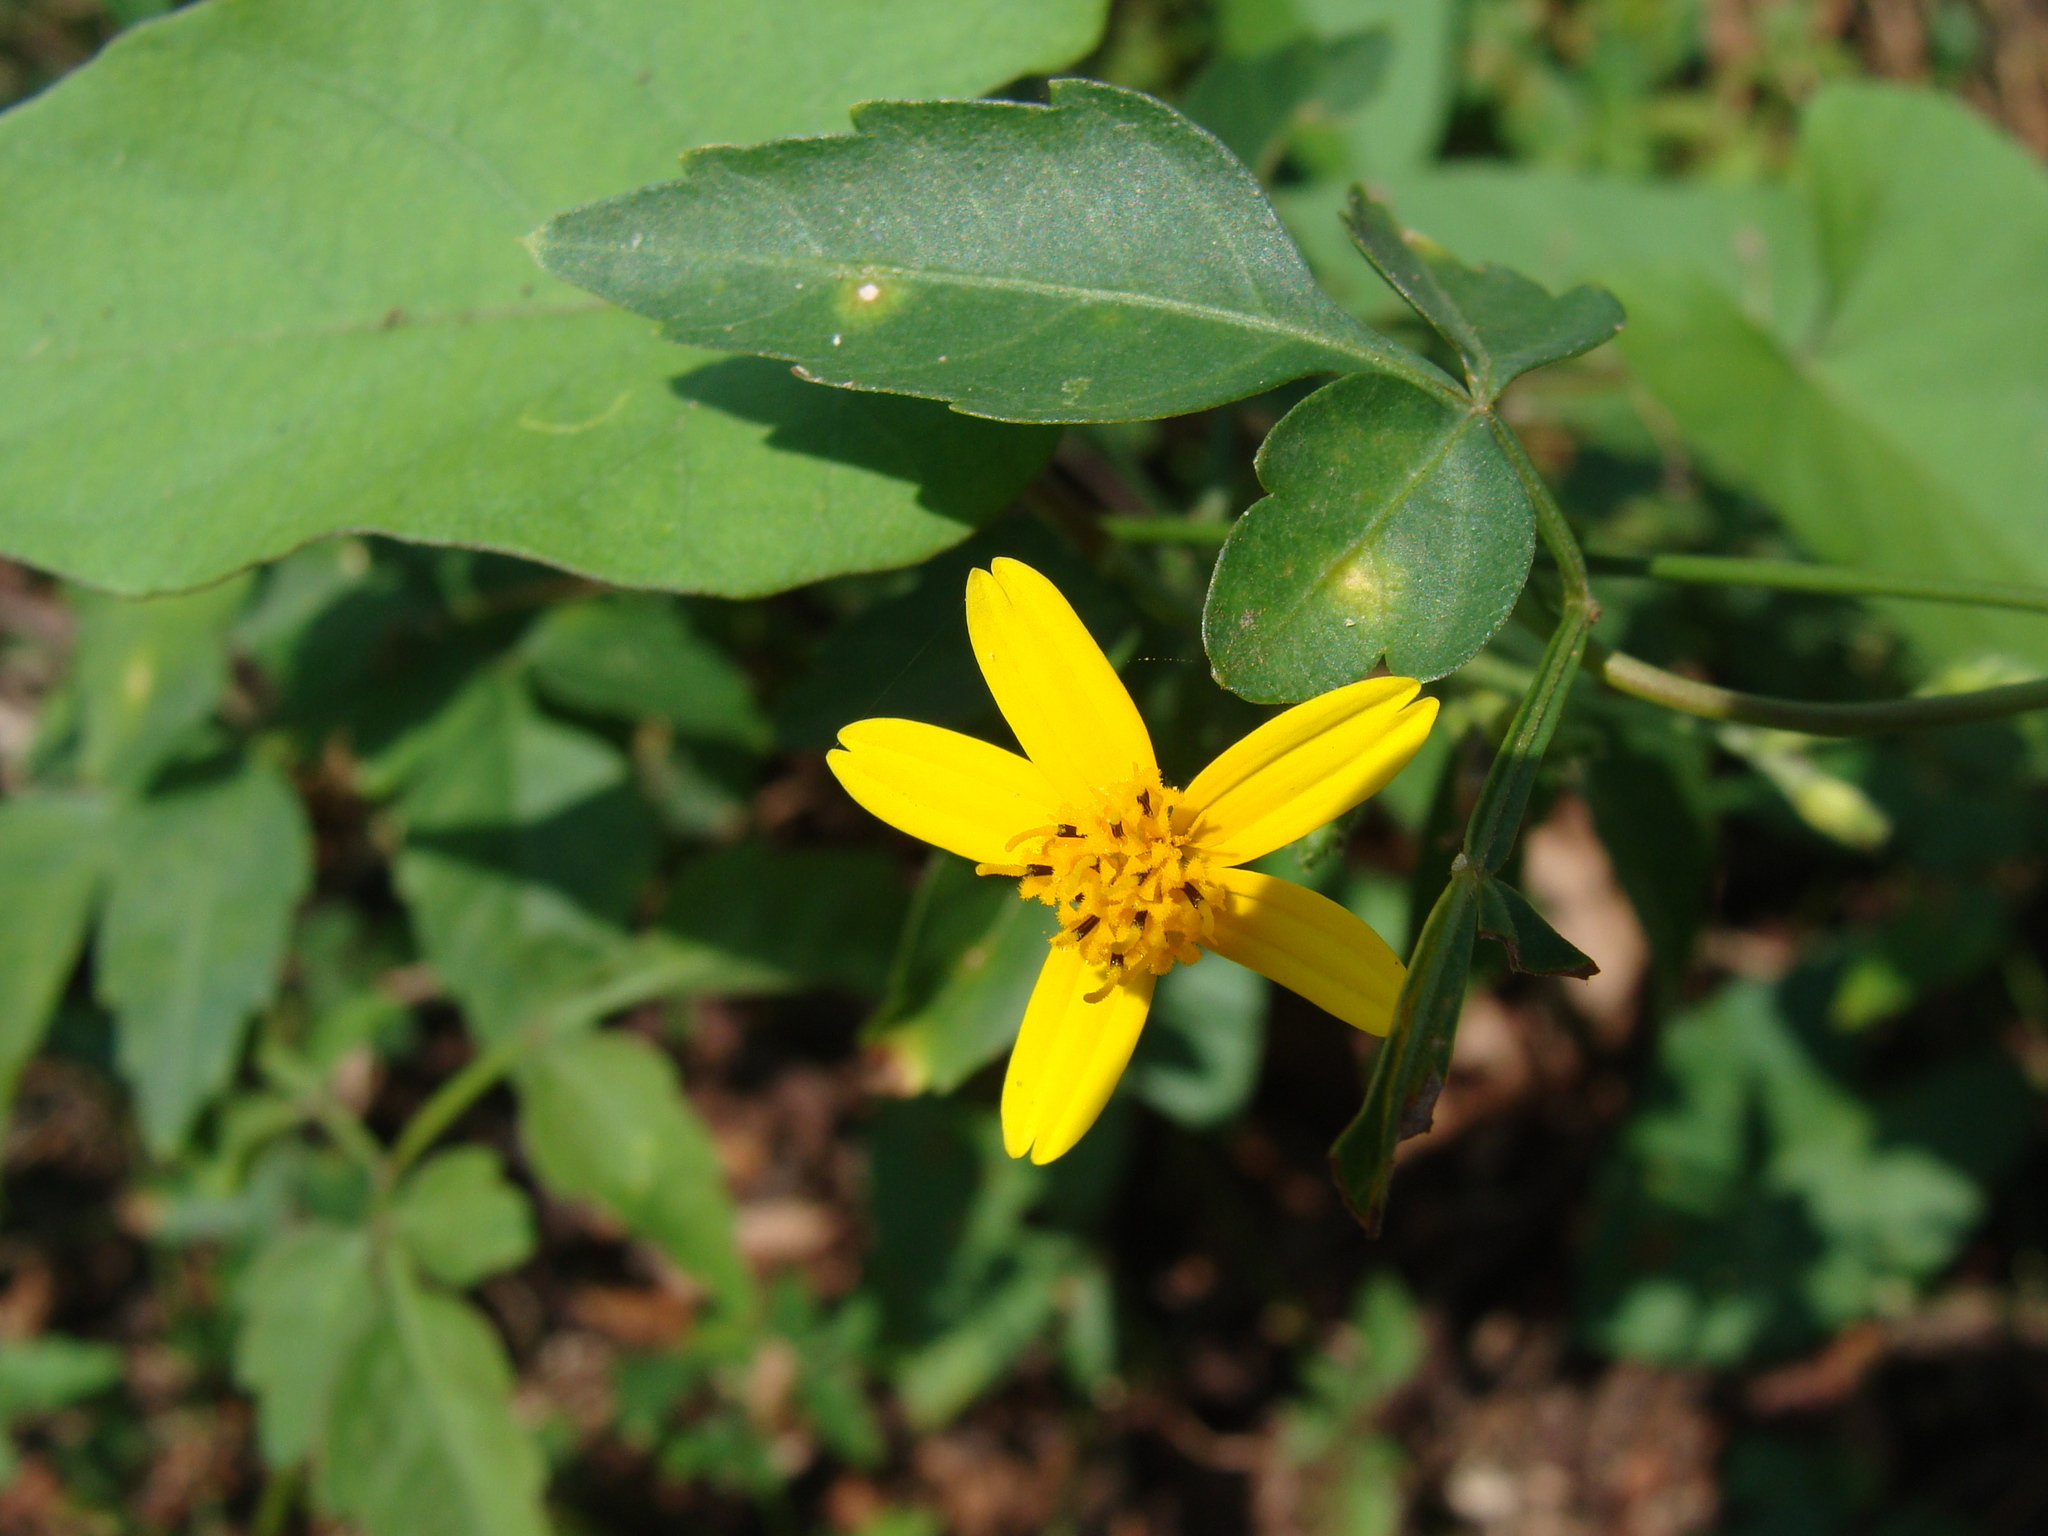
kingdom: Plantae
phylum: Tracheophyta
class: Magnoliopsida
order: Asterales
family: Asteraceae
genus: Baltimora
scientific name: Baltimora recta
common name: Beautyhead
